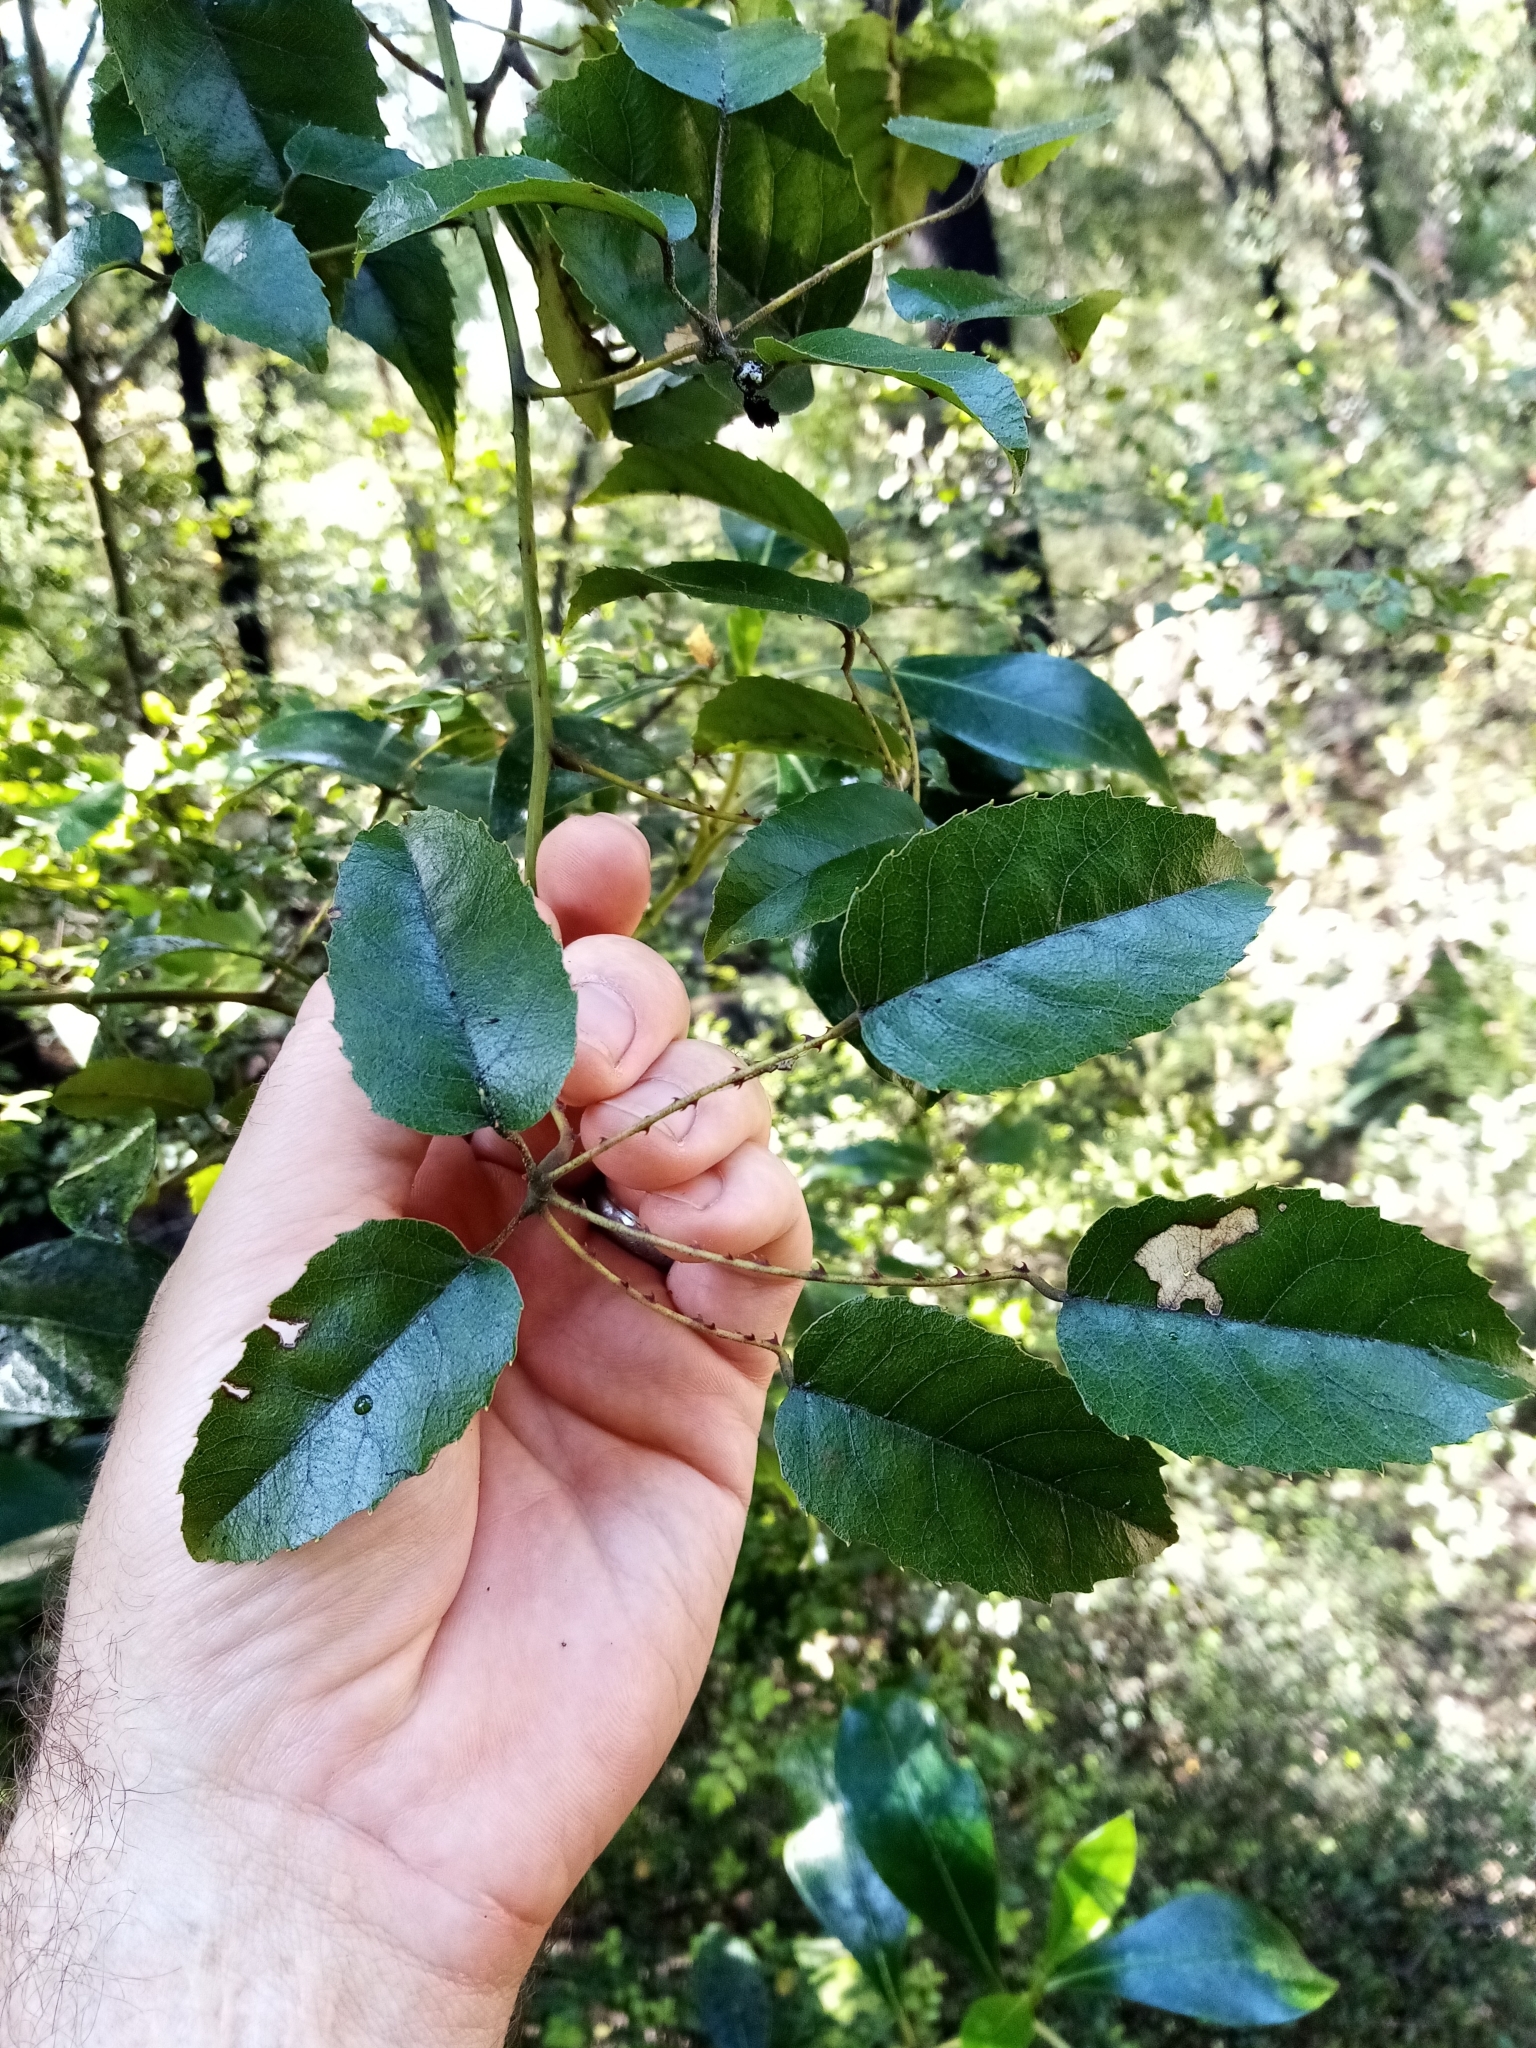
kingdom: Plantae
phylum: Tracheophyta
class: Magnoliopsida
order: Rosales
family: Rosaceae
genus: Rubus
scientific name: Rubus cissoides
